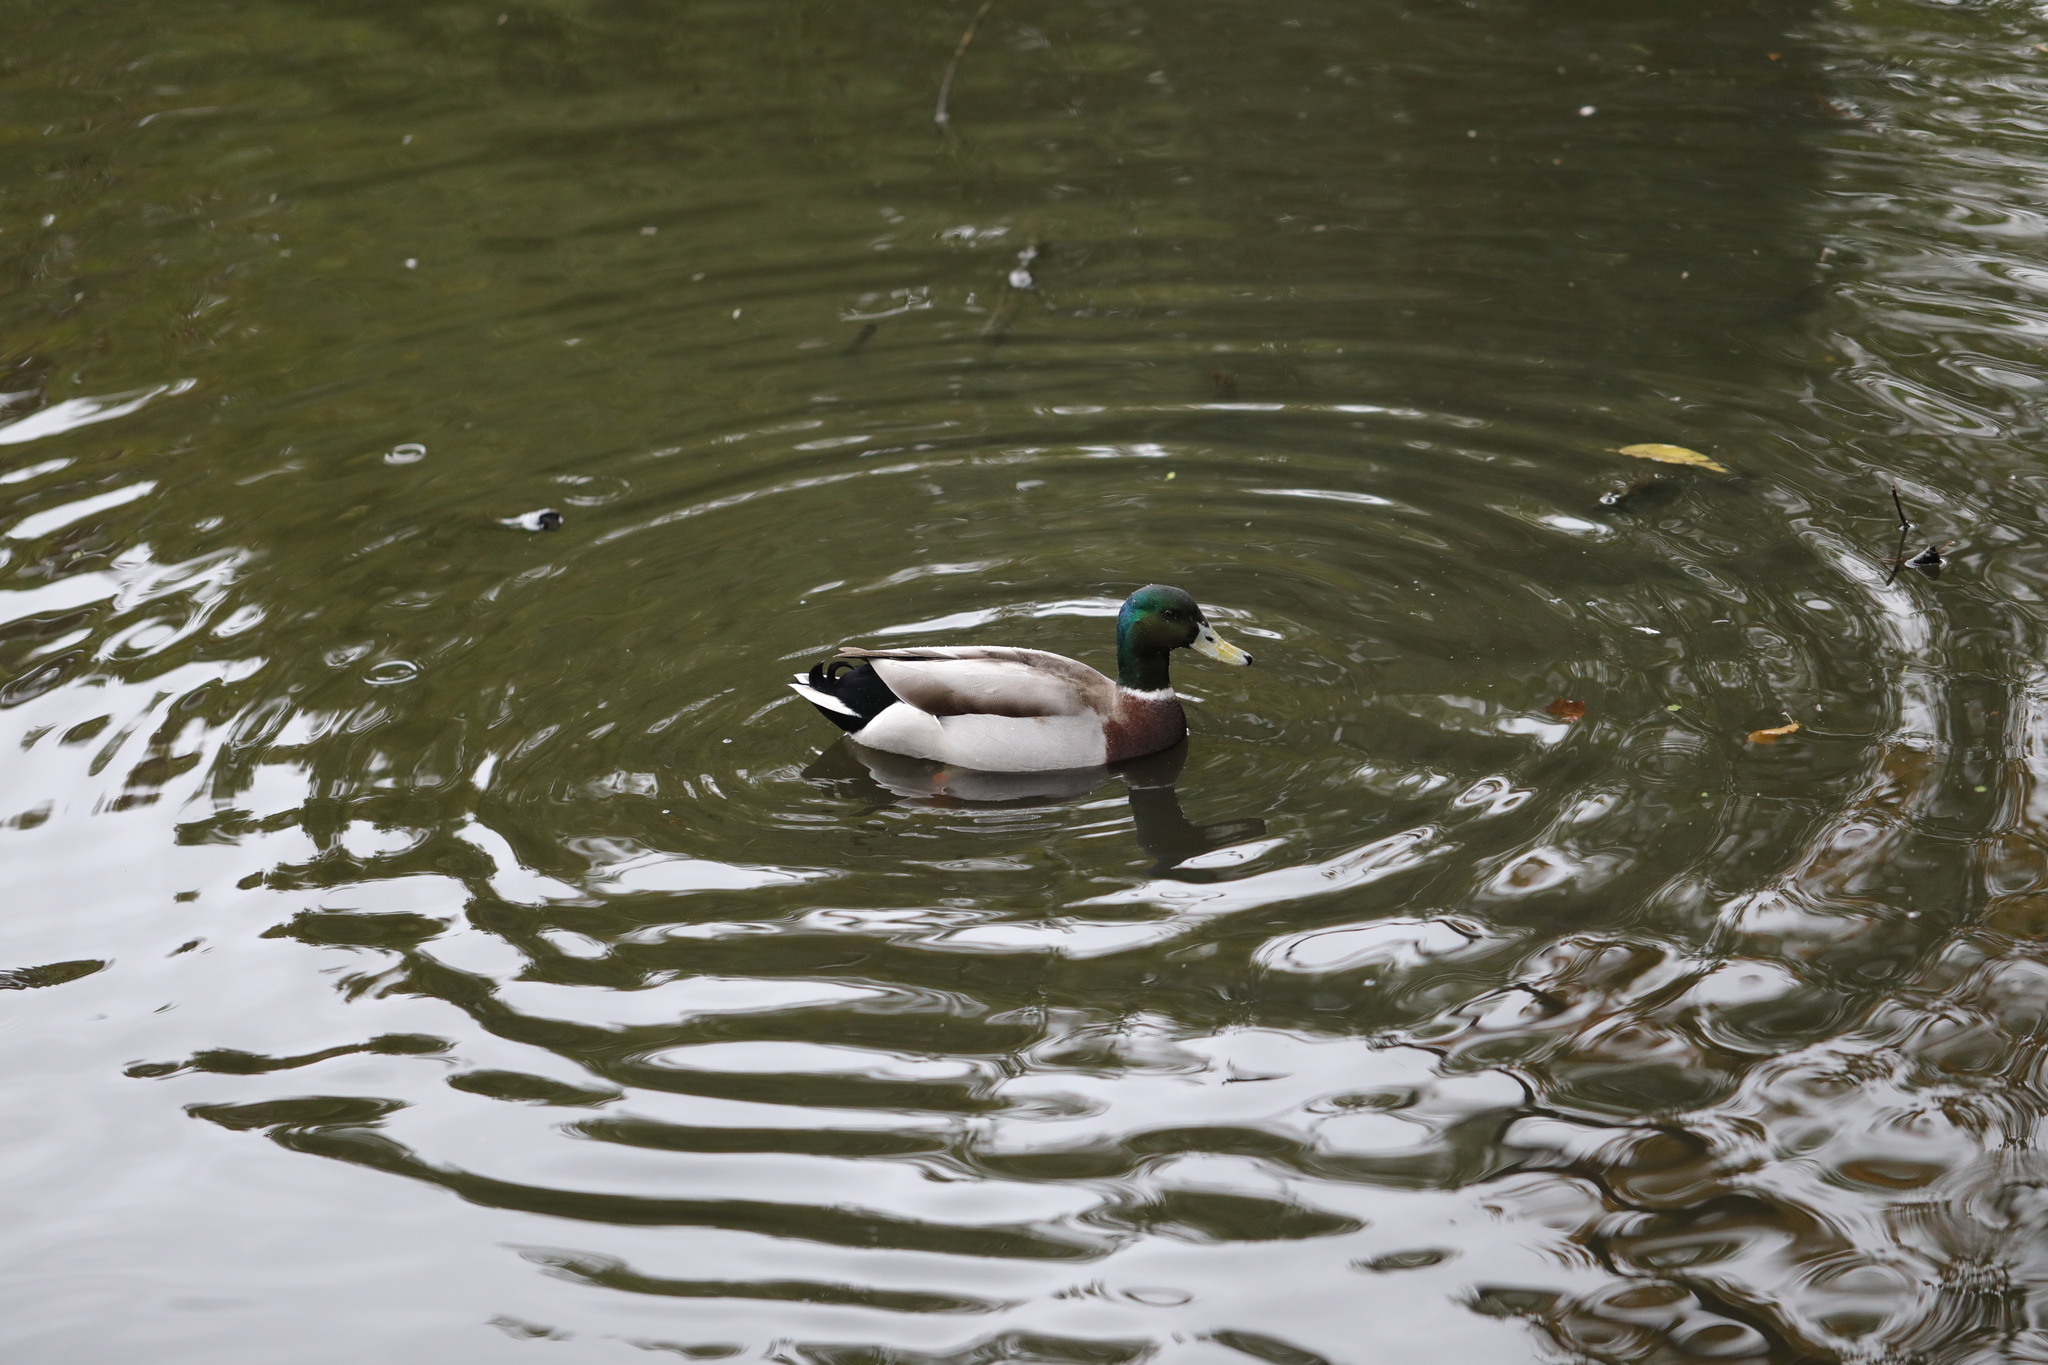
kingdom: Animalia
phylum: Chordata
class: Aves
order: Anseriformes
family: Anatidae
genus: Anas
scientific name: Anas platyrhynchos
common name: Mallard
